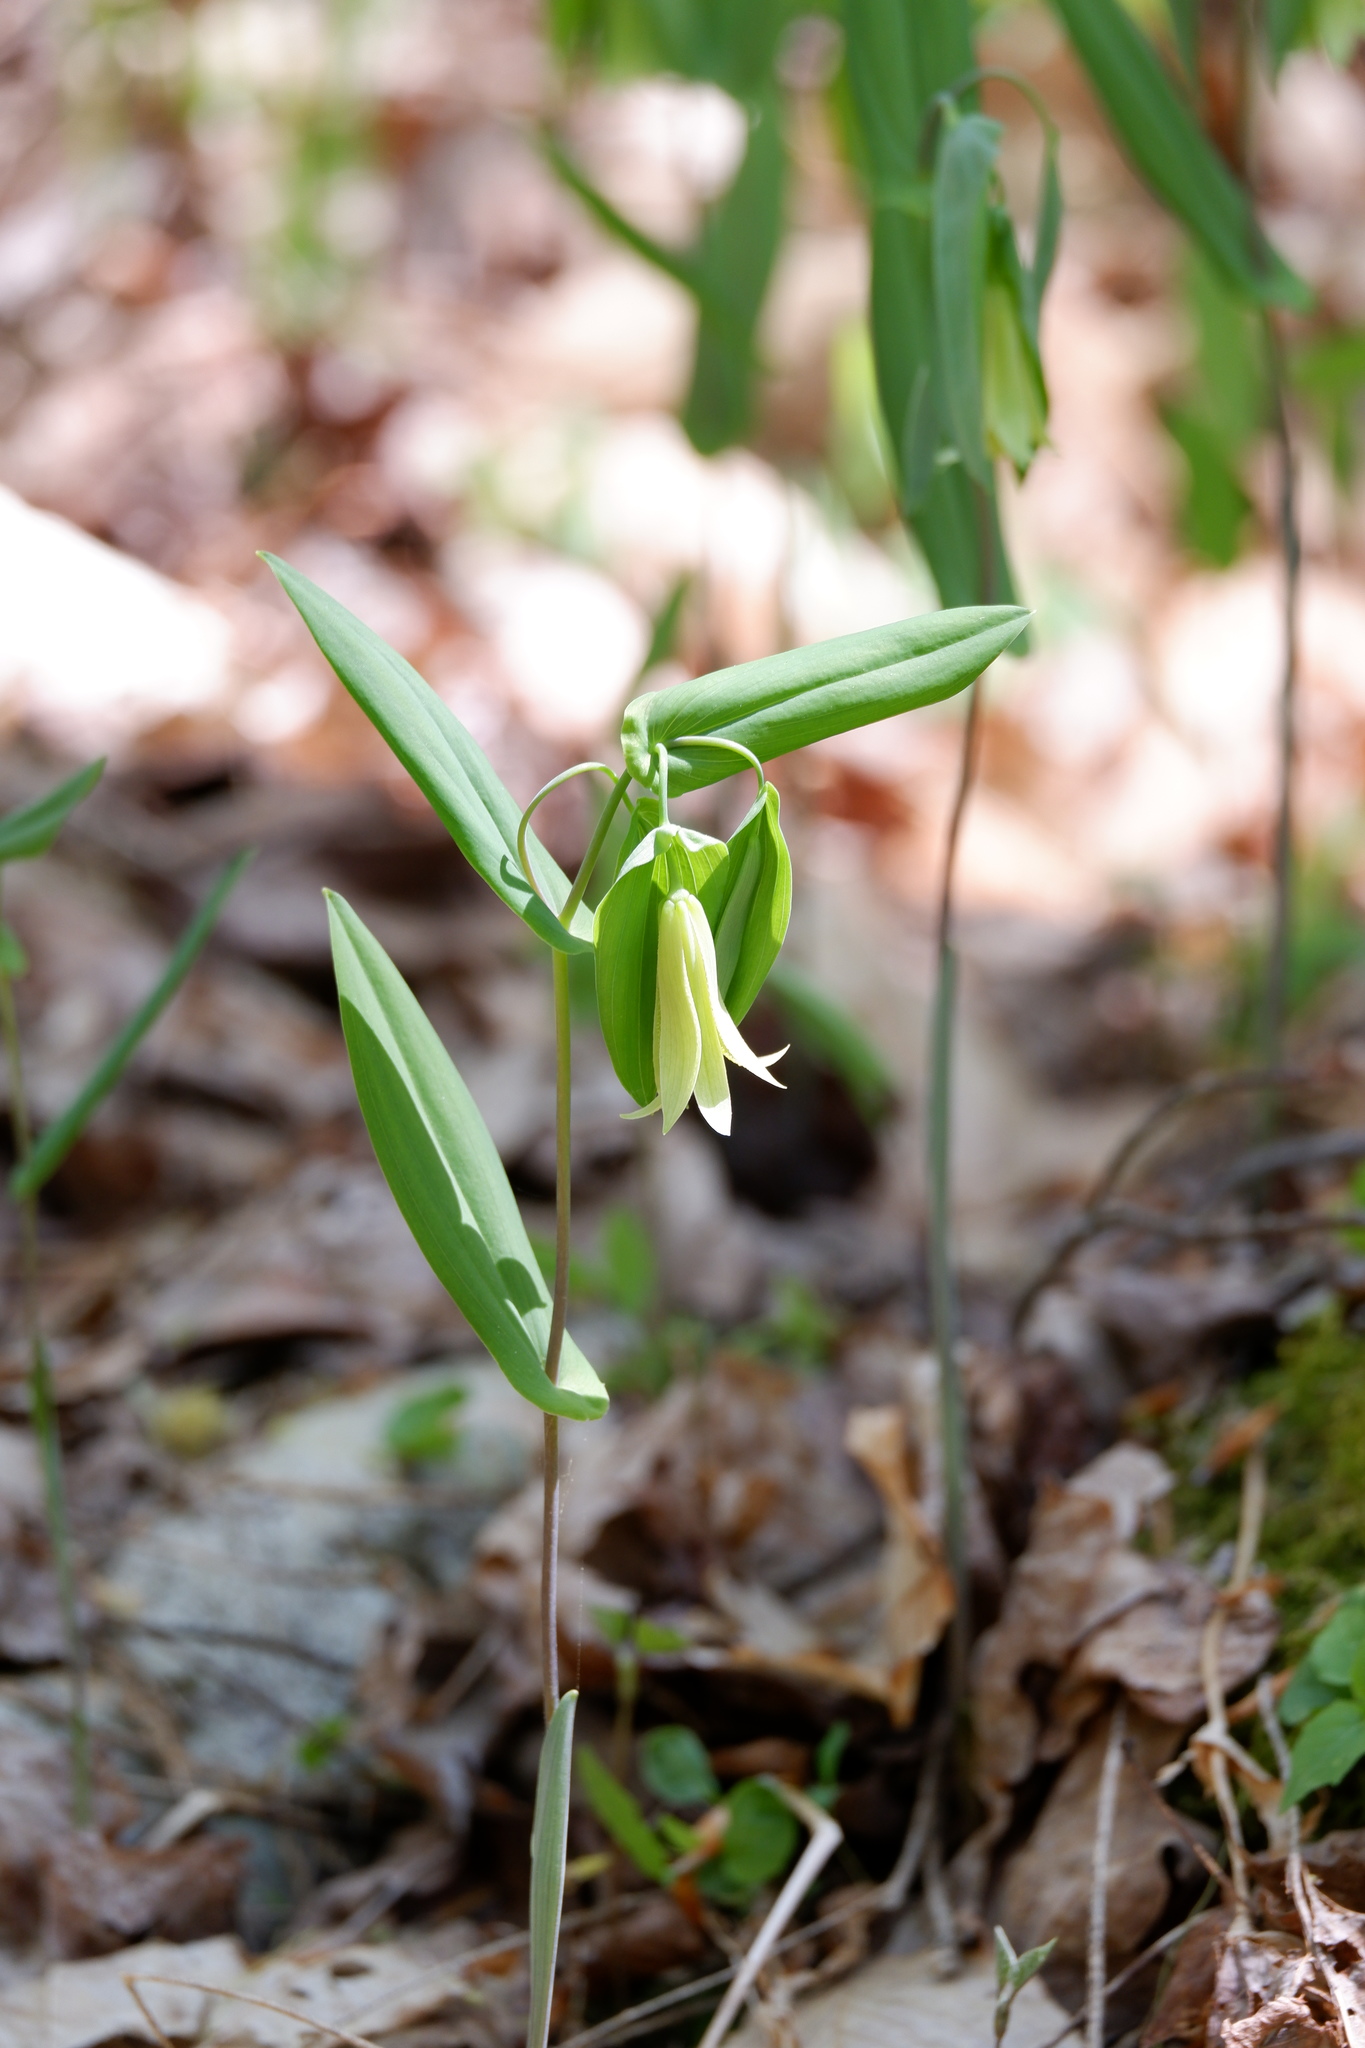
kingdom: Plantae
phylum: Tracheophyta
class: Liliopsida
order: Liliales
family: Colchicaceae
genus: Uvularia
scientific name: Uvularia perfoliata
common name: Perfoliate bellwort
